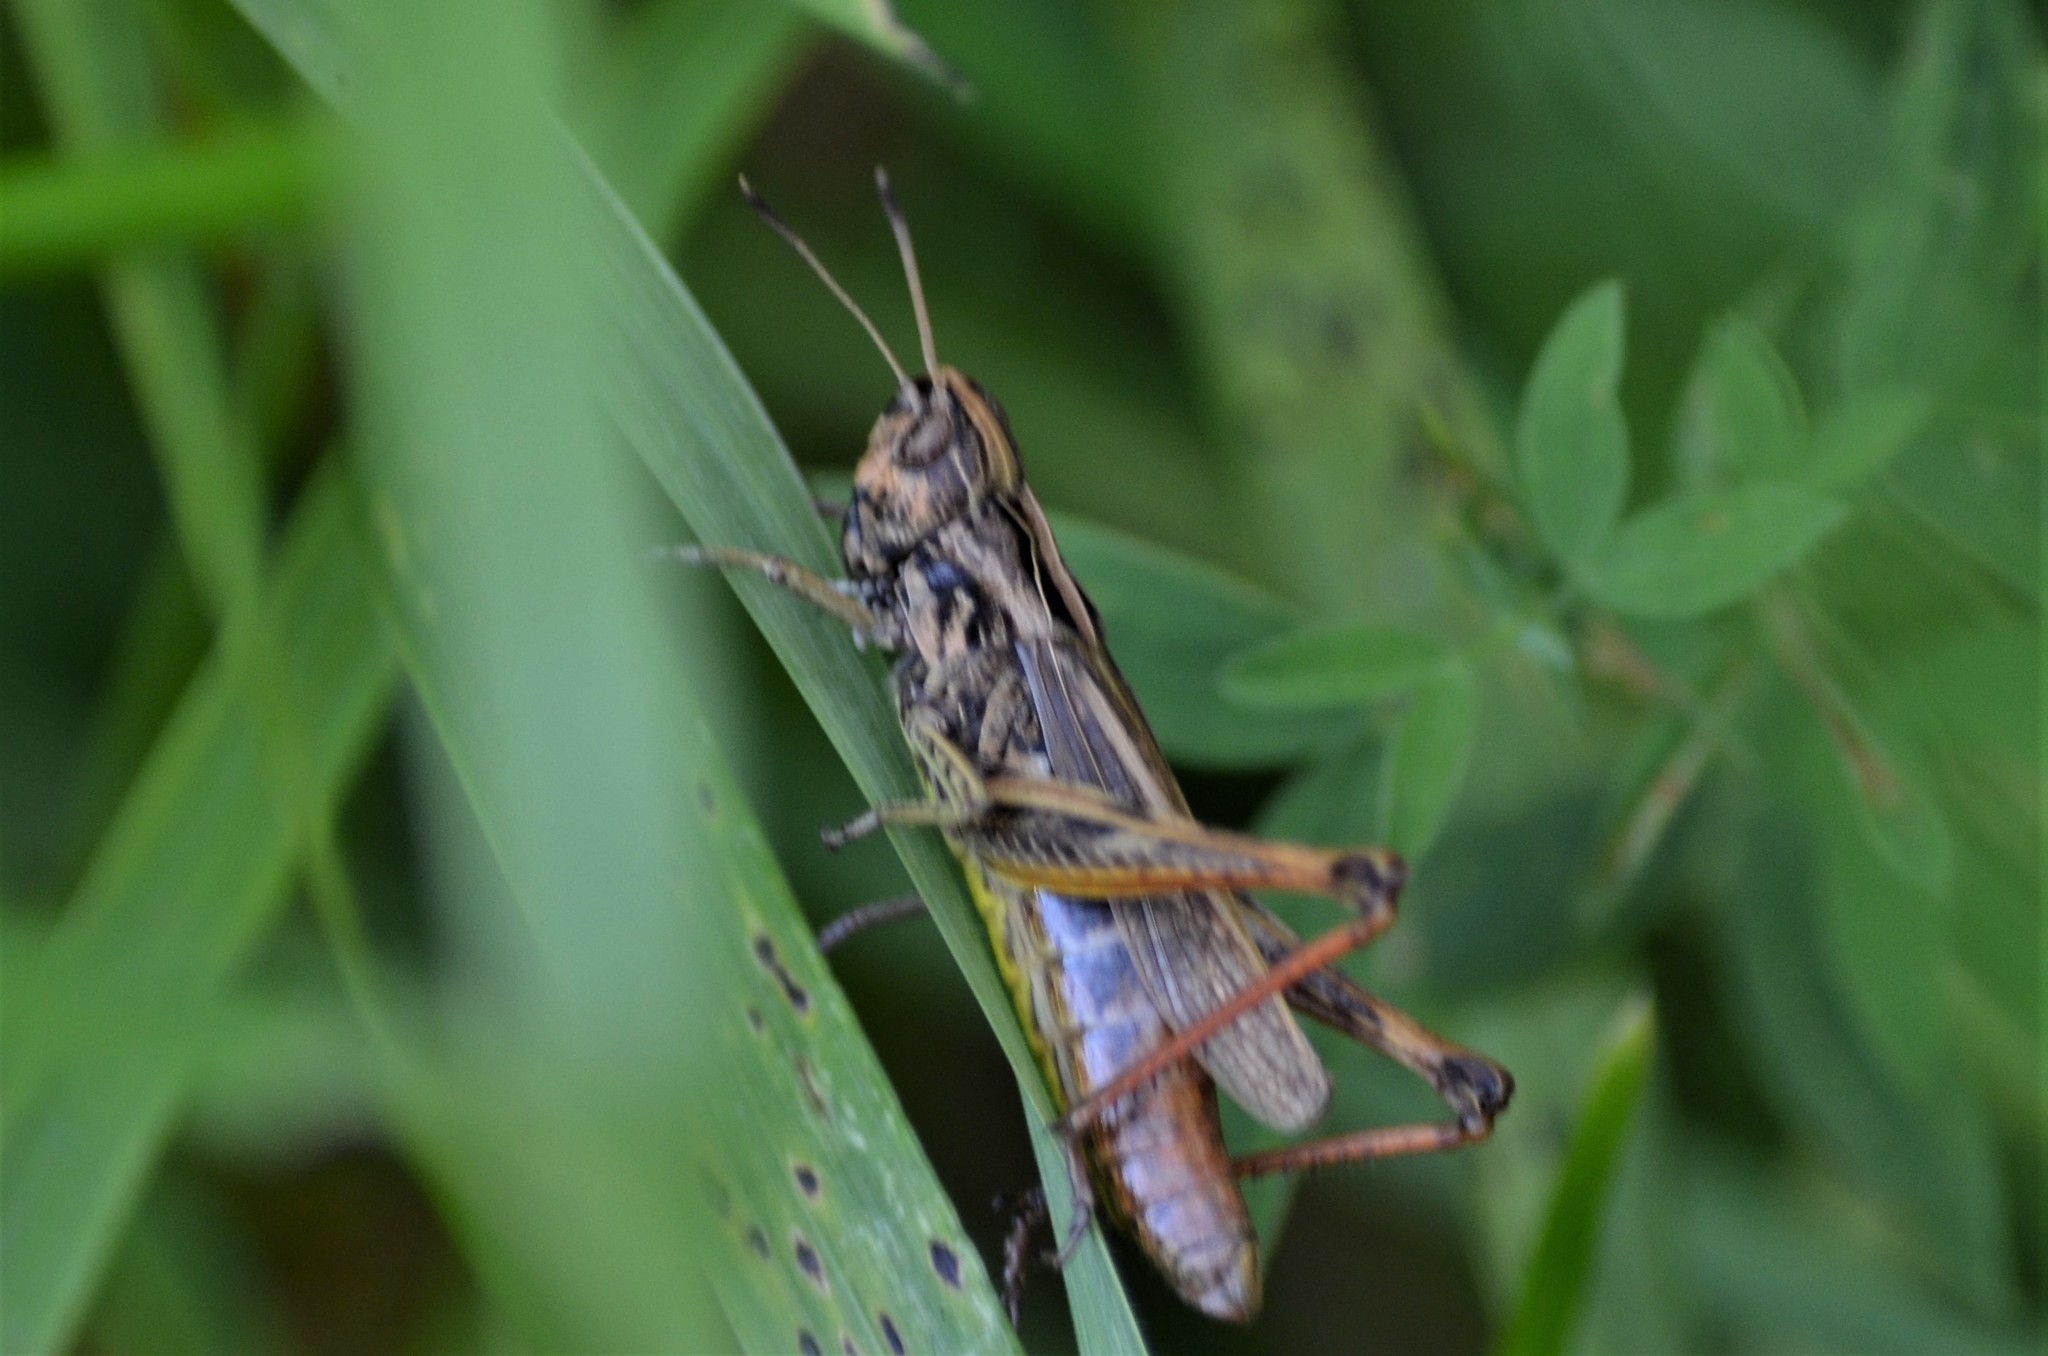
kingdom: Animalia
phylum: Arthropoda
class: Insecta
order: Orthoptera
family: Acrididae
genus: Gomphocerippus
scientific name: Gomphocerippus rufus
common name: Rufous grasshopper
